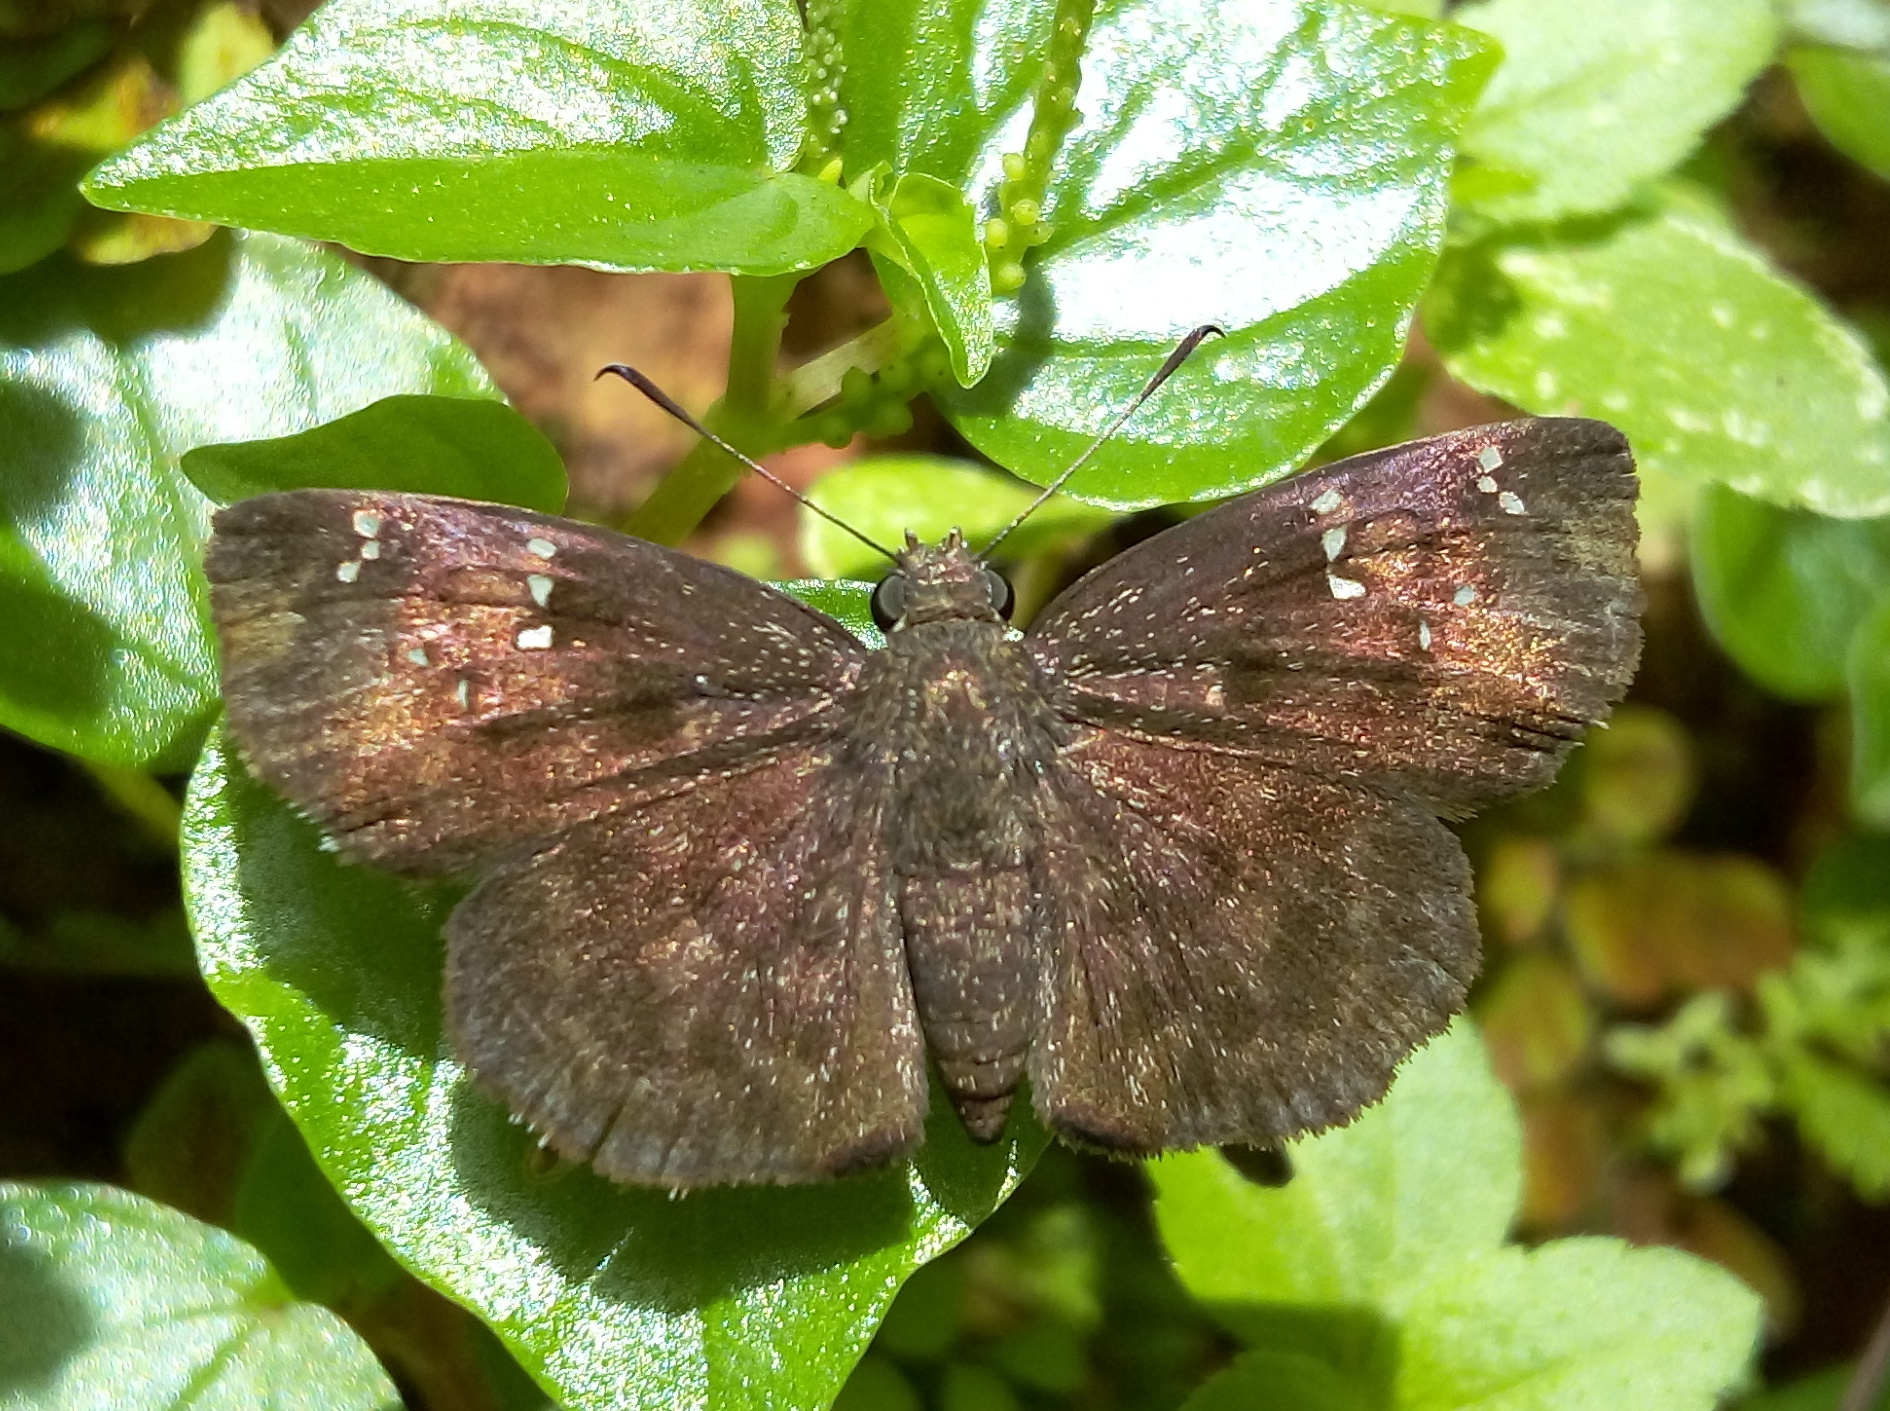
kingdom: Animalia
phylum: Arthropoda
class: Insecta
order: Lepidoptera
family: Hesperiidae
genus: Sarangesa
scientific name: Sarangesa dasahara
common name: Common small flat
